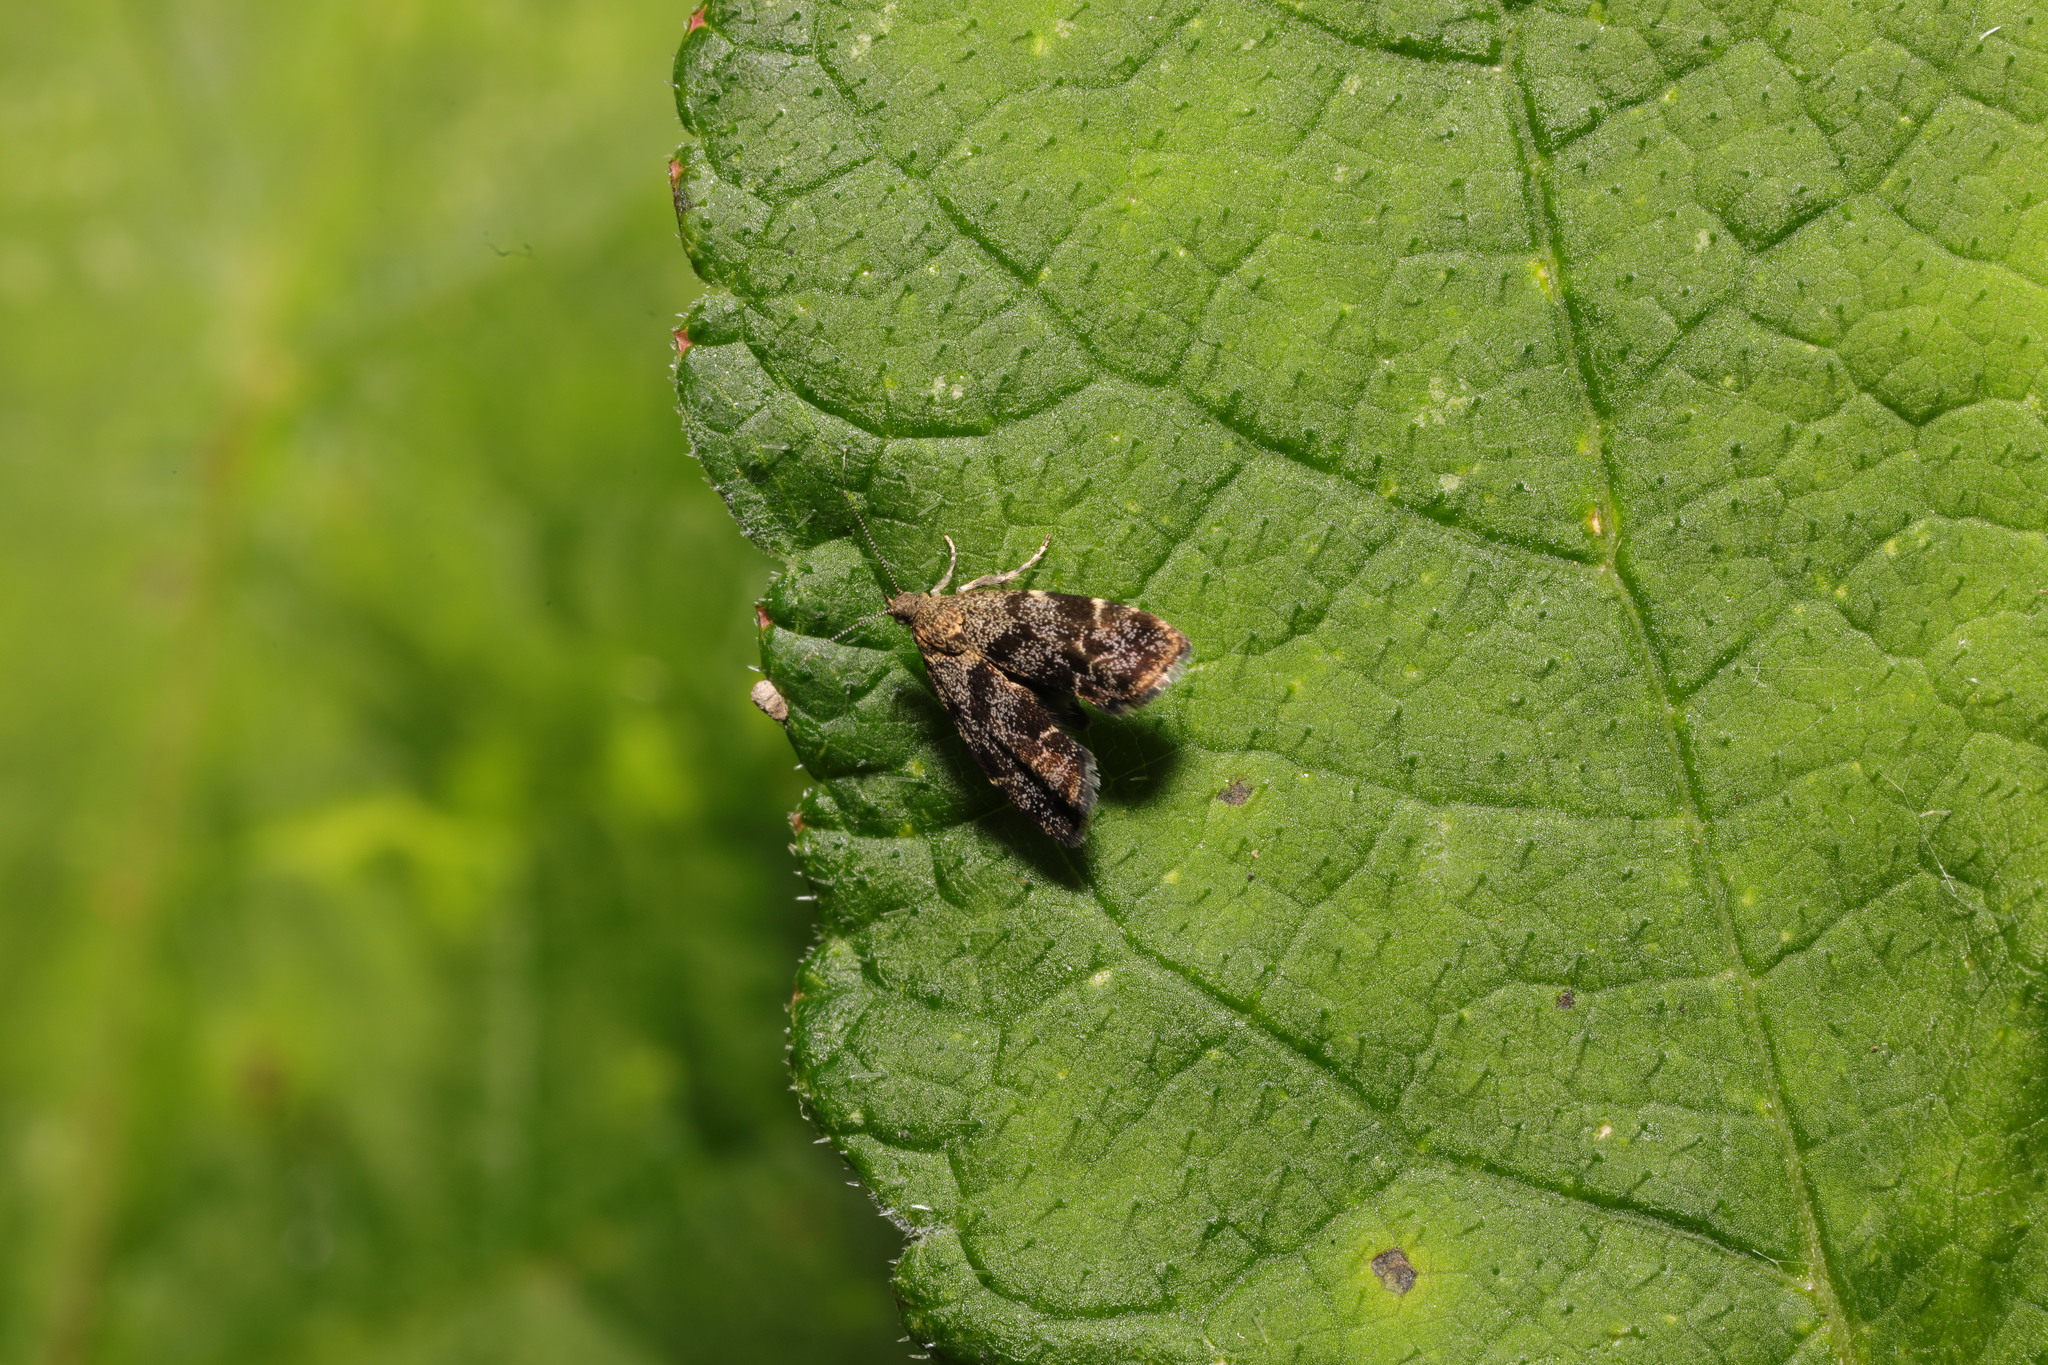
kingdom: Animalia
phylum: Arthropoda
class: Insecta
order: Lepidoptera
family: Choreutidae
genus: Anthophila
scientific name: Anthophila fabriciana
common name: Nettle-tap
